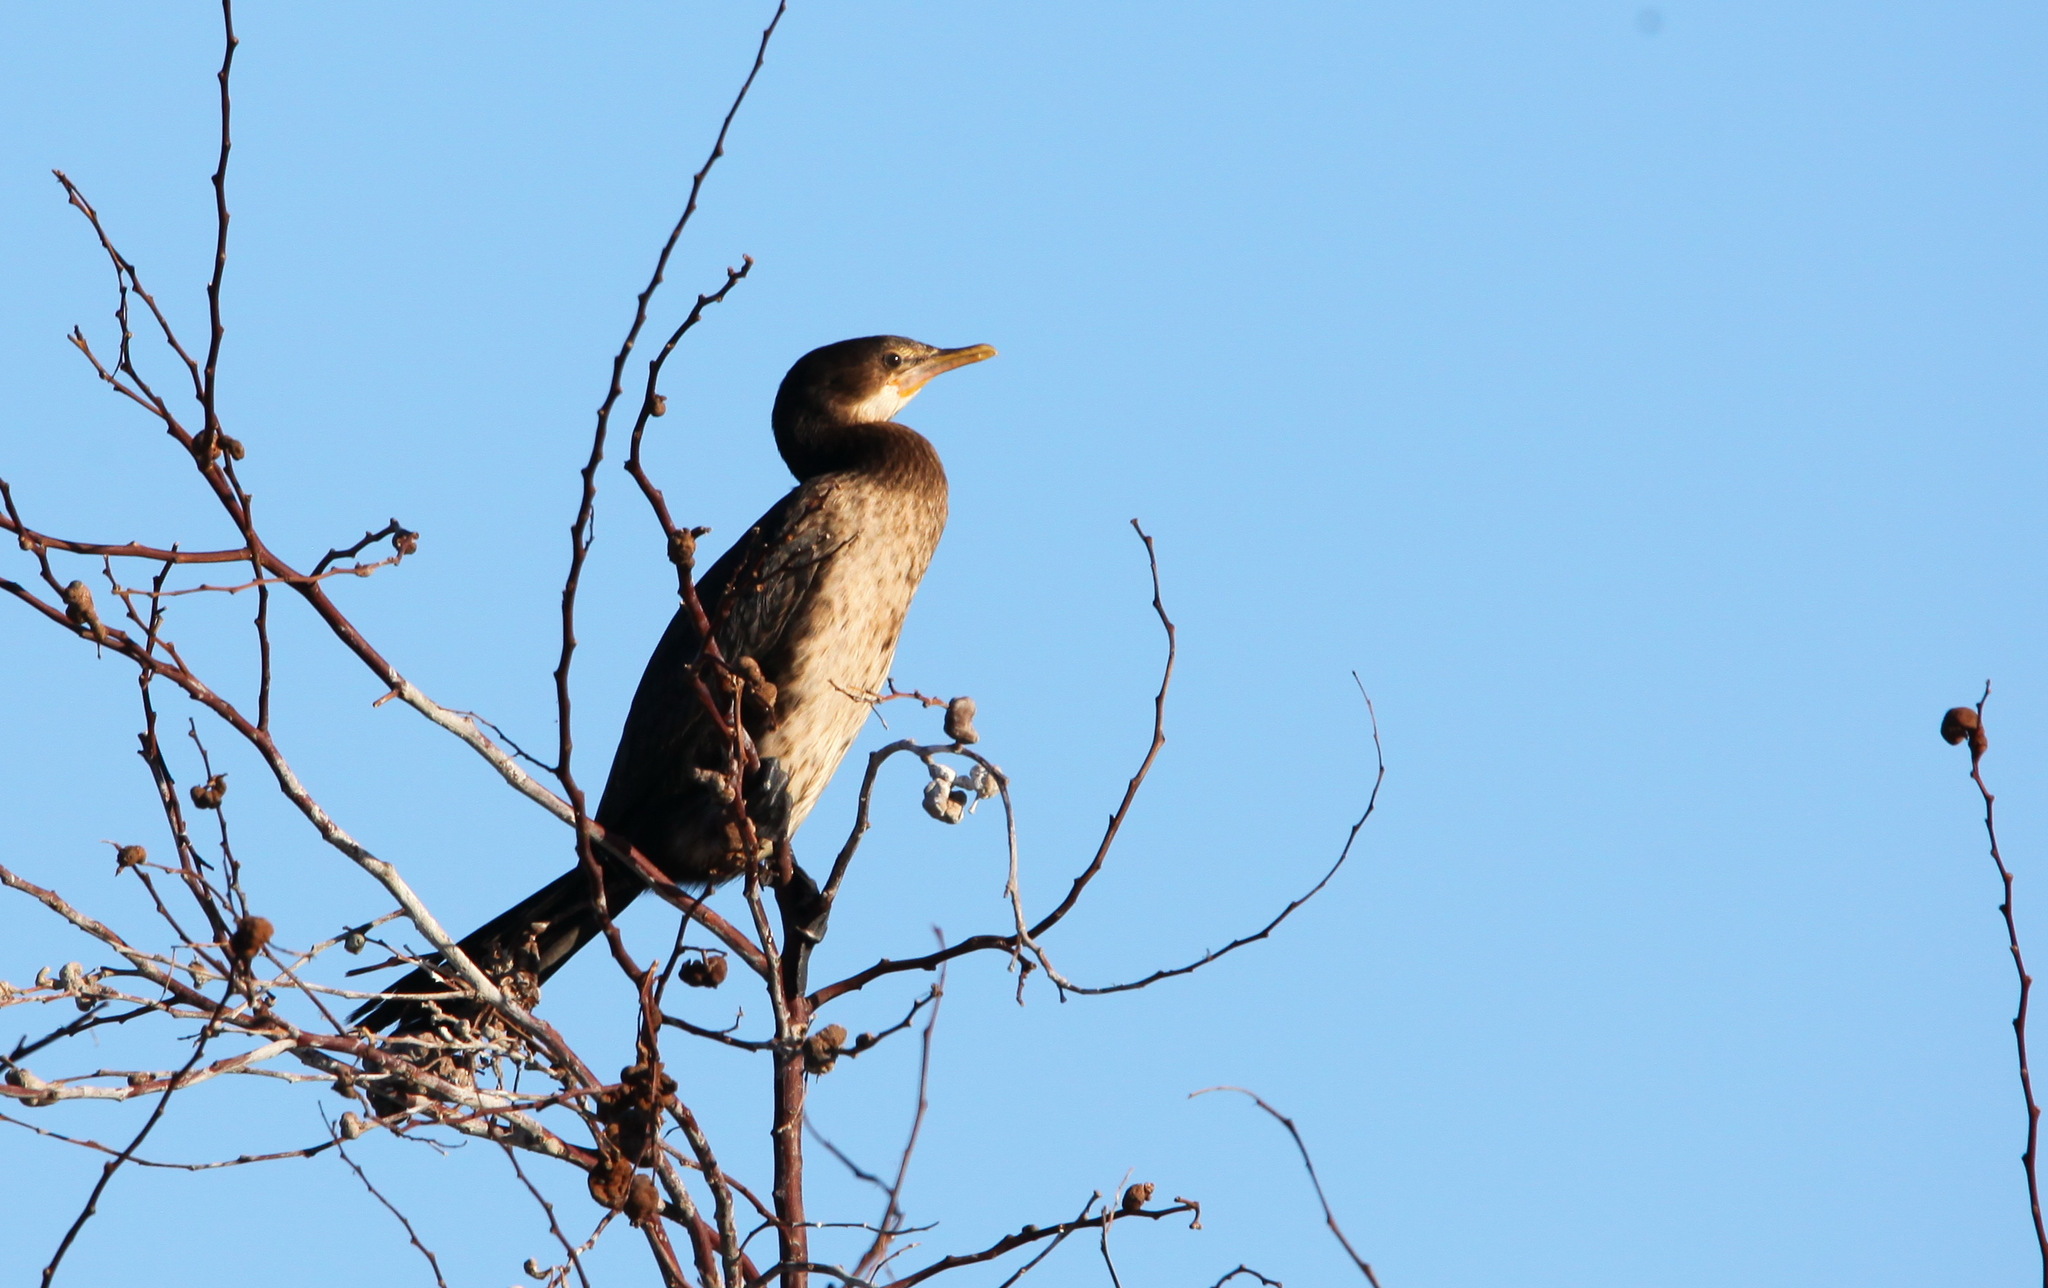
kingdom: Animalia
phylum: Chordata
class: Aves
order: Suliformes
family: Phalacrocoracidae
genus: Microcarbo
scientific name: Microcarbo africanus
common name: Long-tailed cormorant
